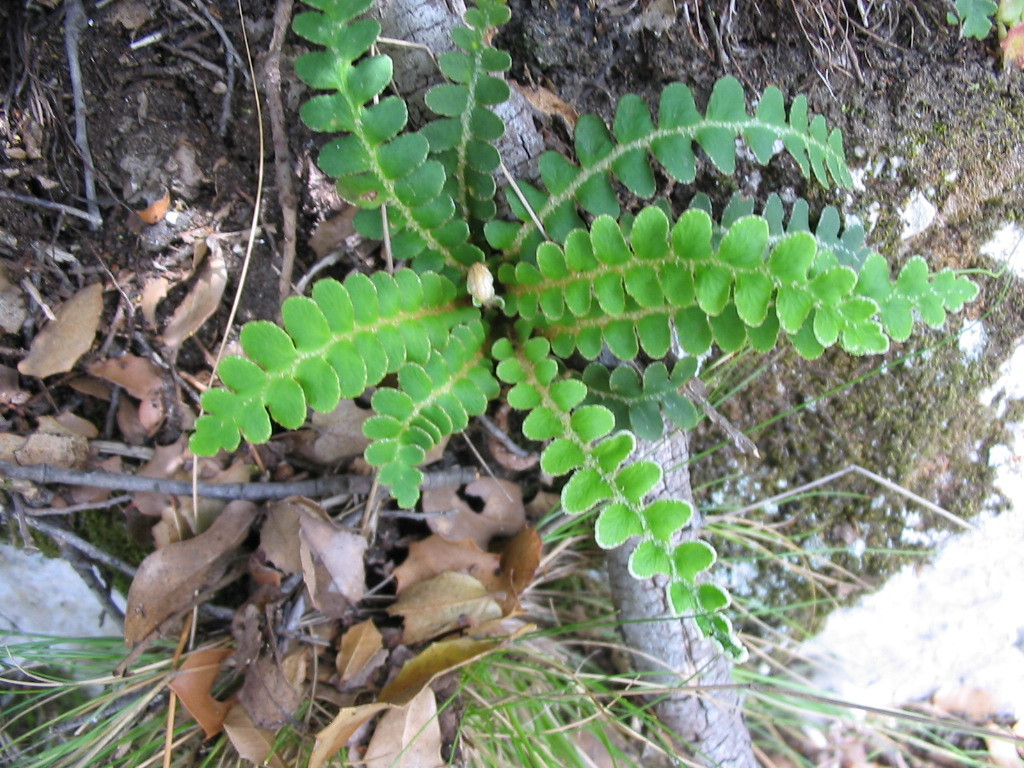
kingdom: Plantae
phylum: Tracheophyta
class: Polypodiopsida
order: Polypodiales
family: Aspleniaceae
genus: Asplenium
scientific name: Asplenium ceterach
